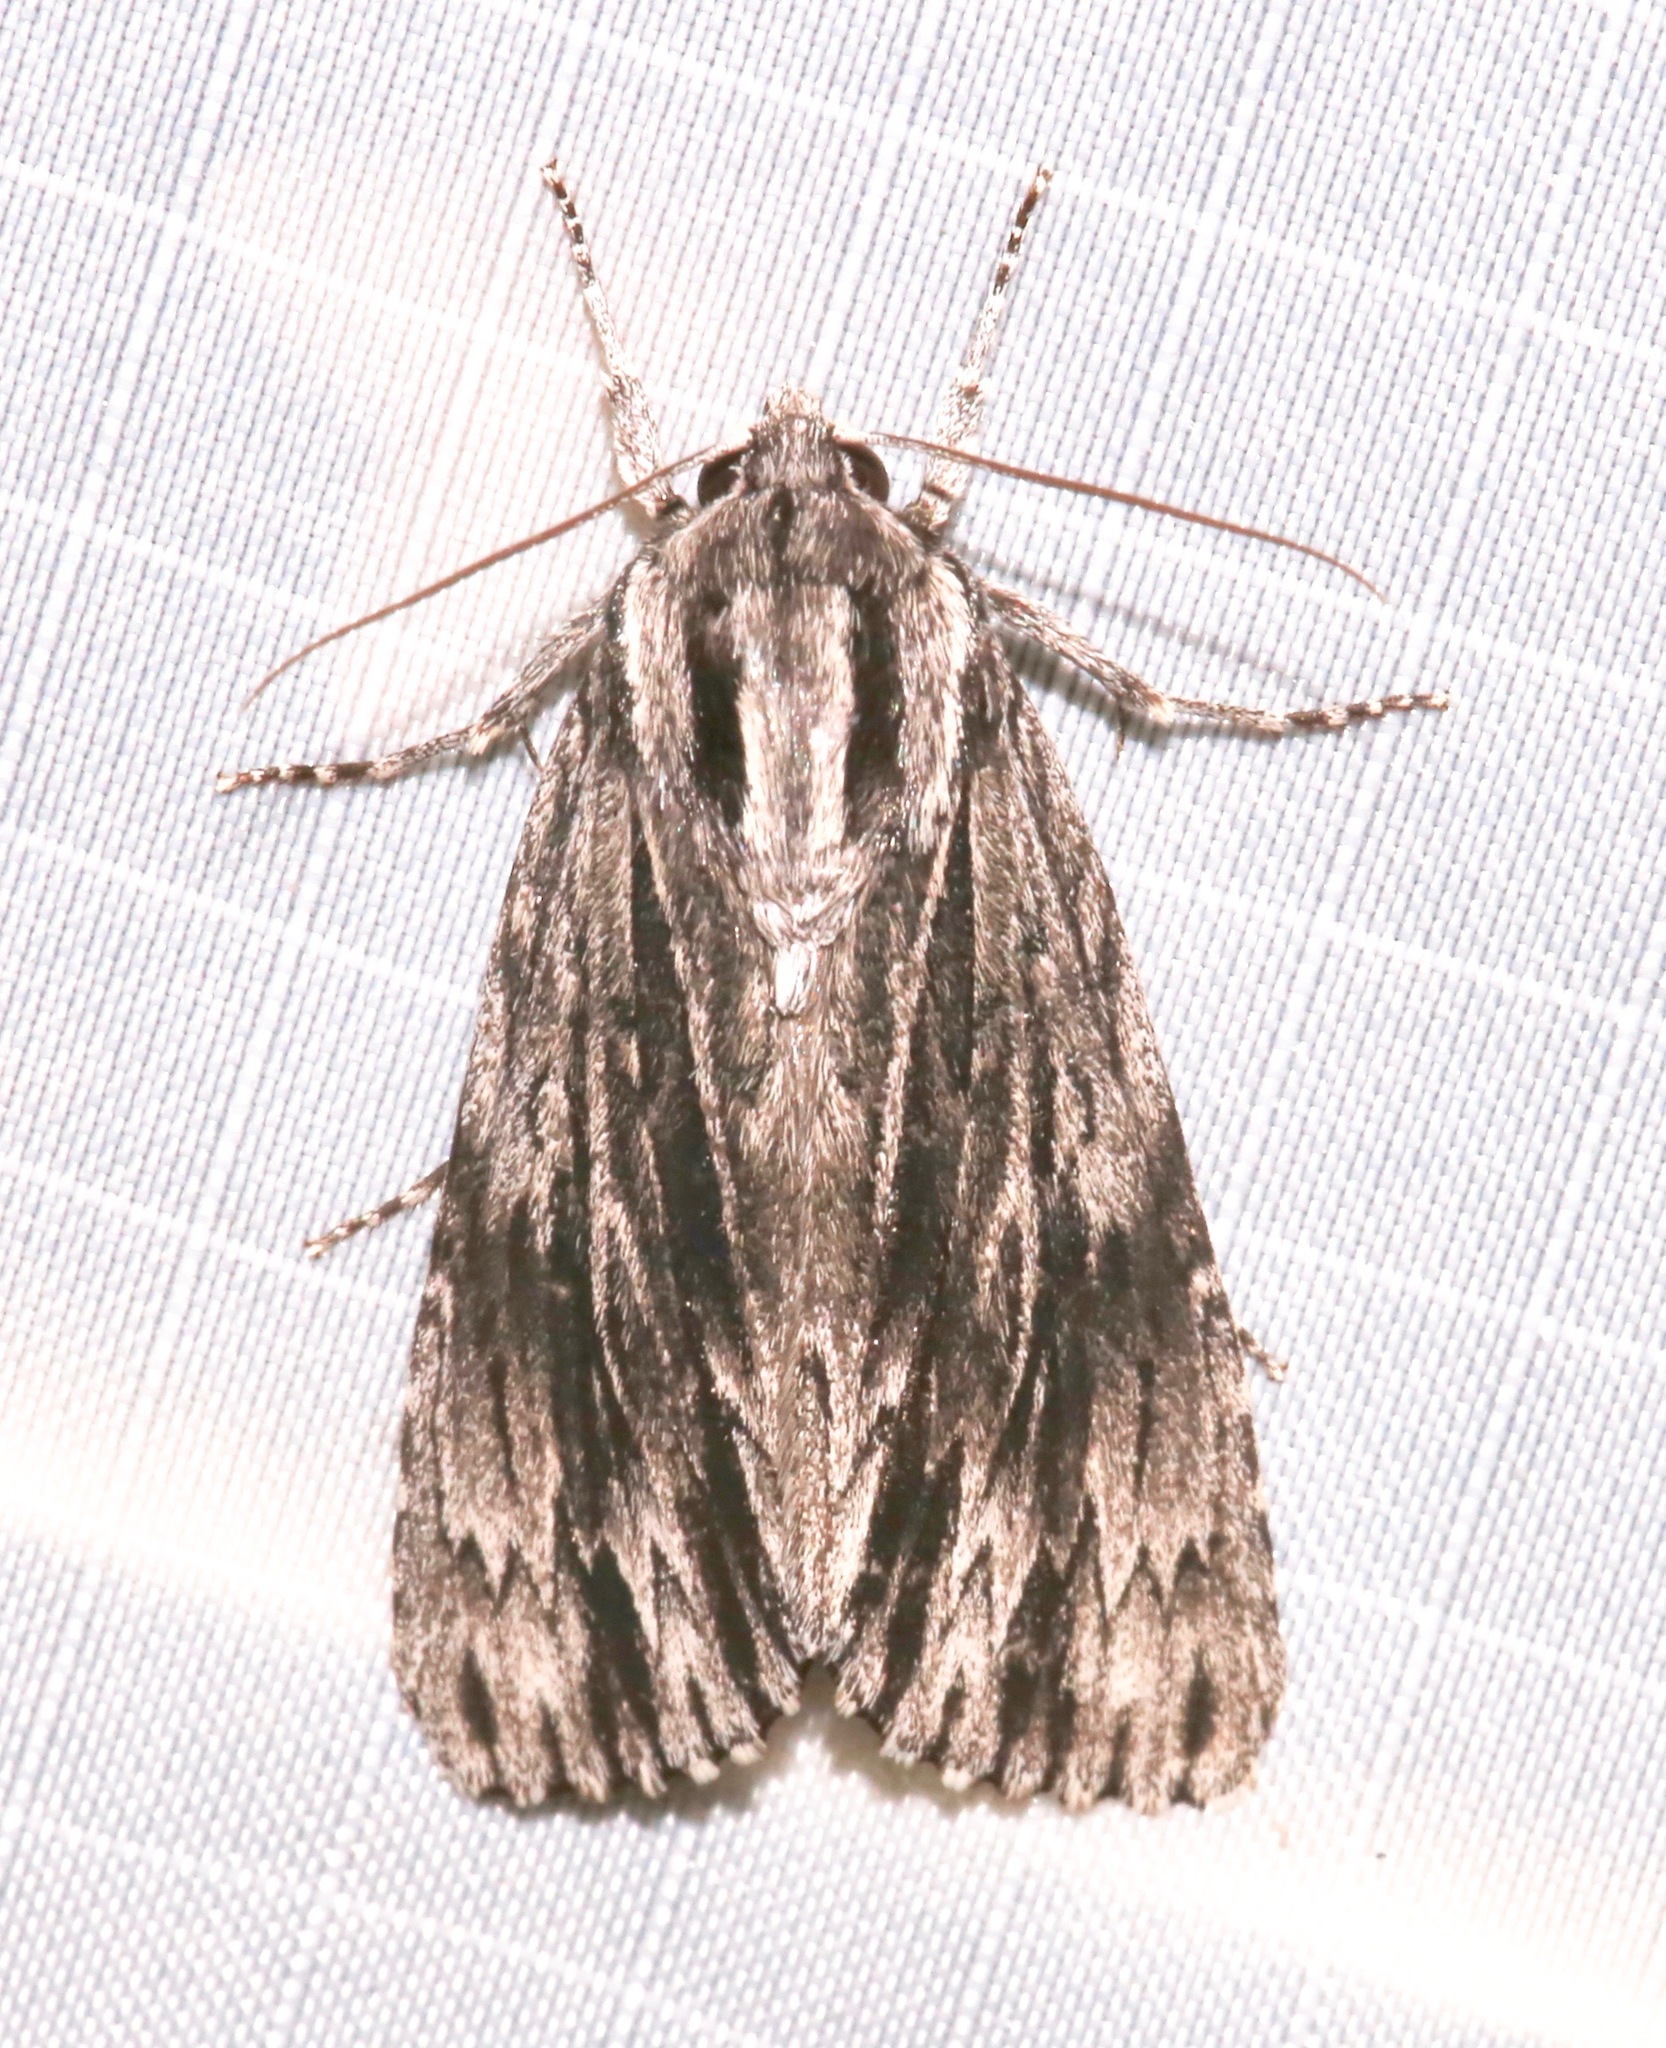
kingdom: Animalia
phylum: Arthropoda
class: Insecta
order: Lepidoptera
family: Noctuidae
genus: Acronicta
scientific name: Acronicta edolata
